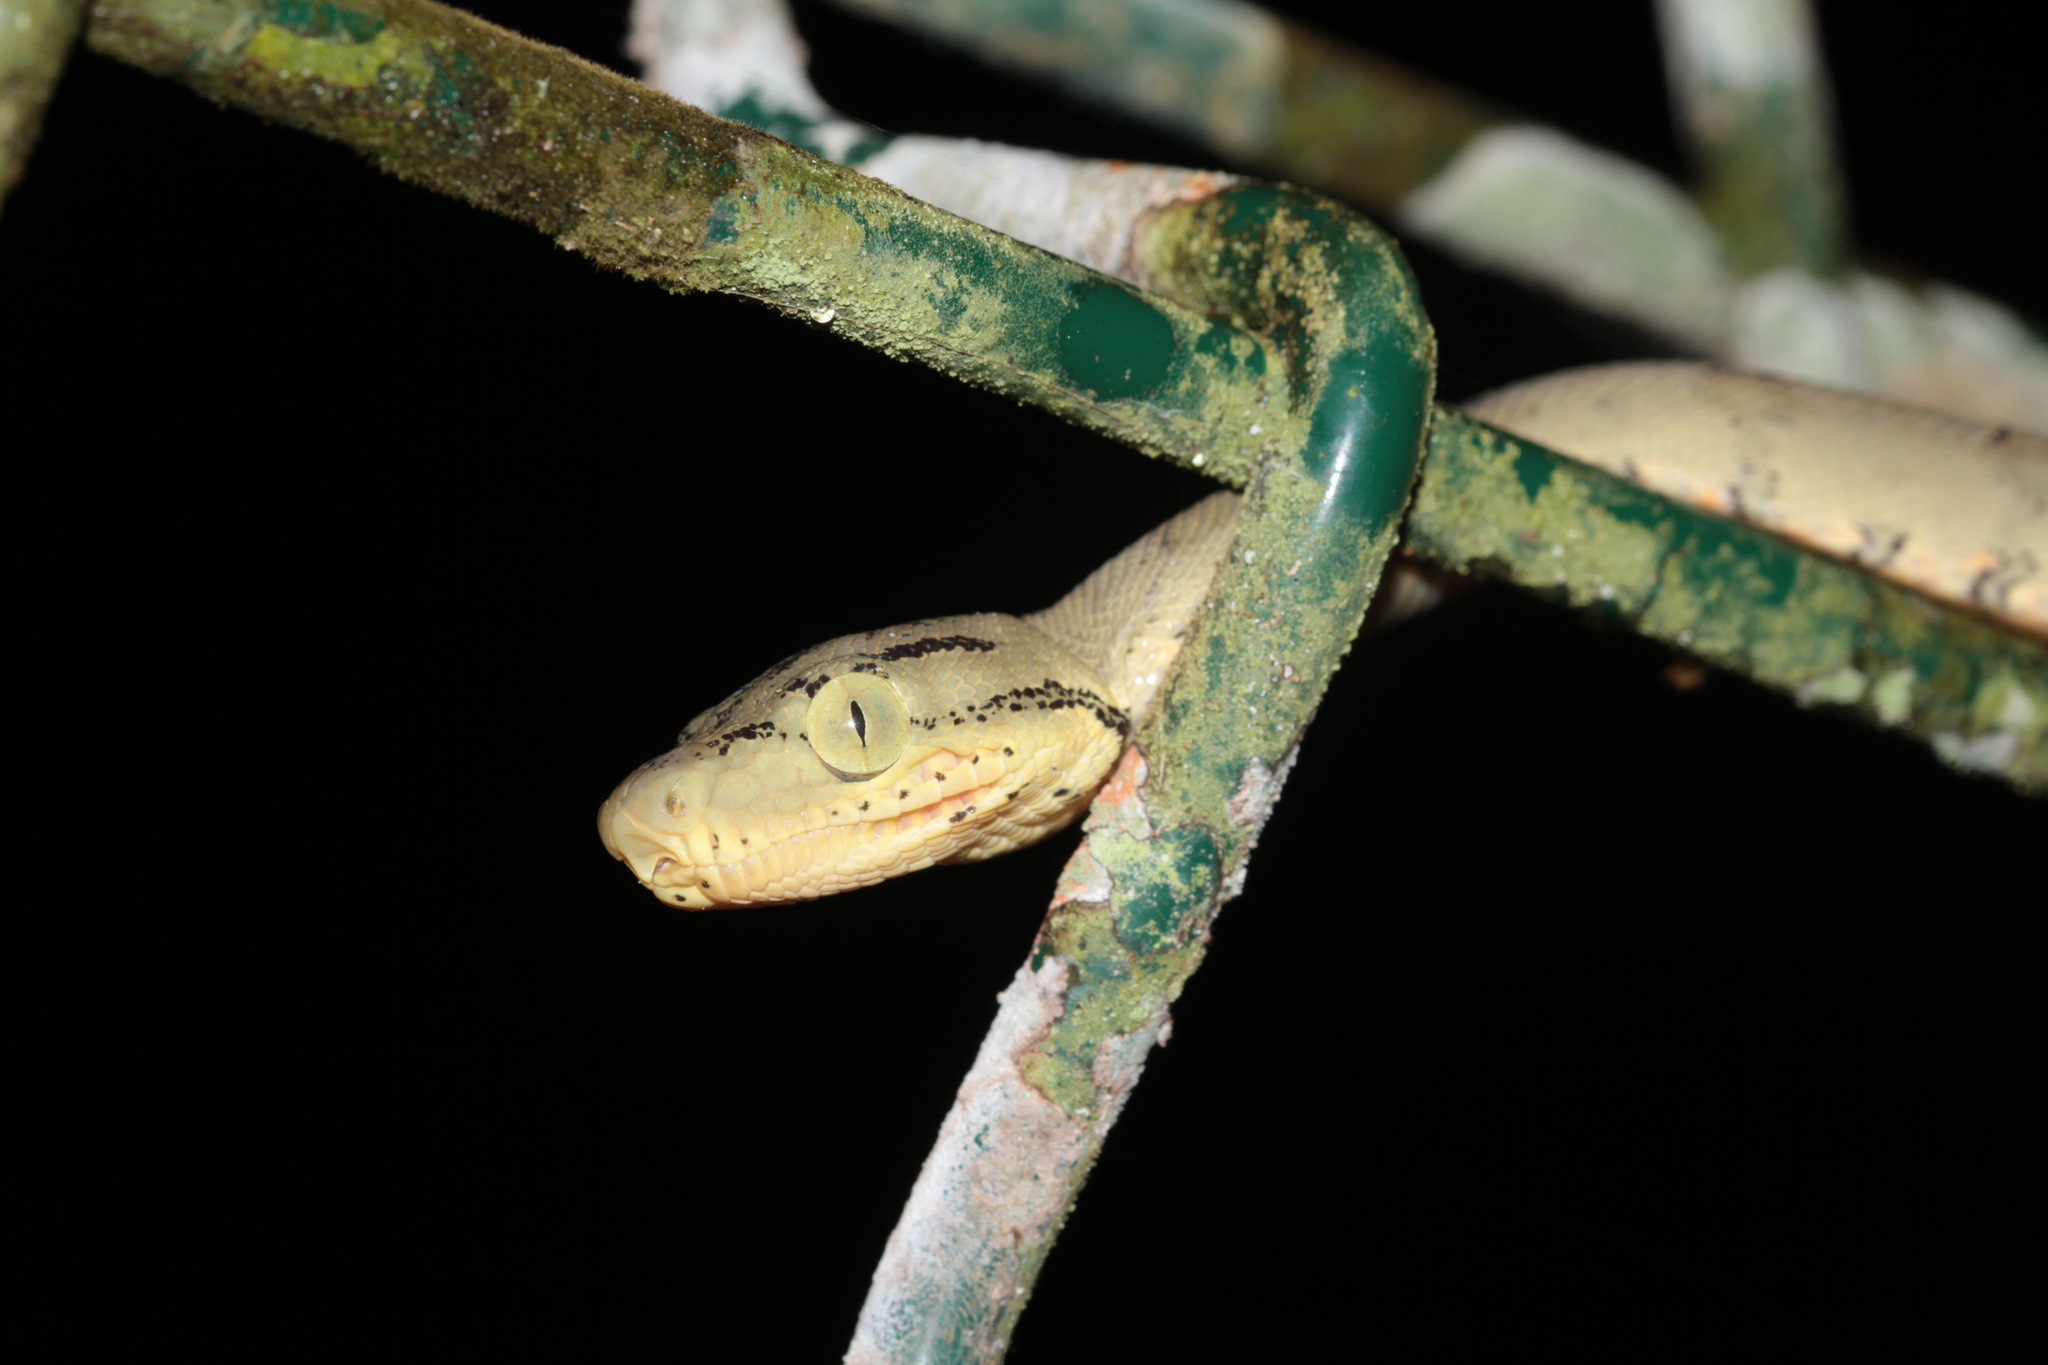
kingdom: Animalia
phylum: Chordata
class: Squamata
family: Boidae
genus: Corallus
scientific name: Corallus hortulana
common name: Garden tree boa
